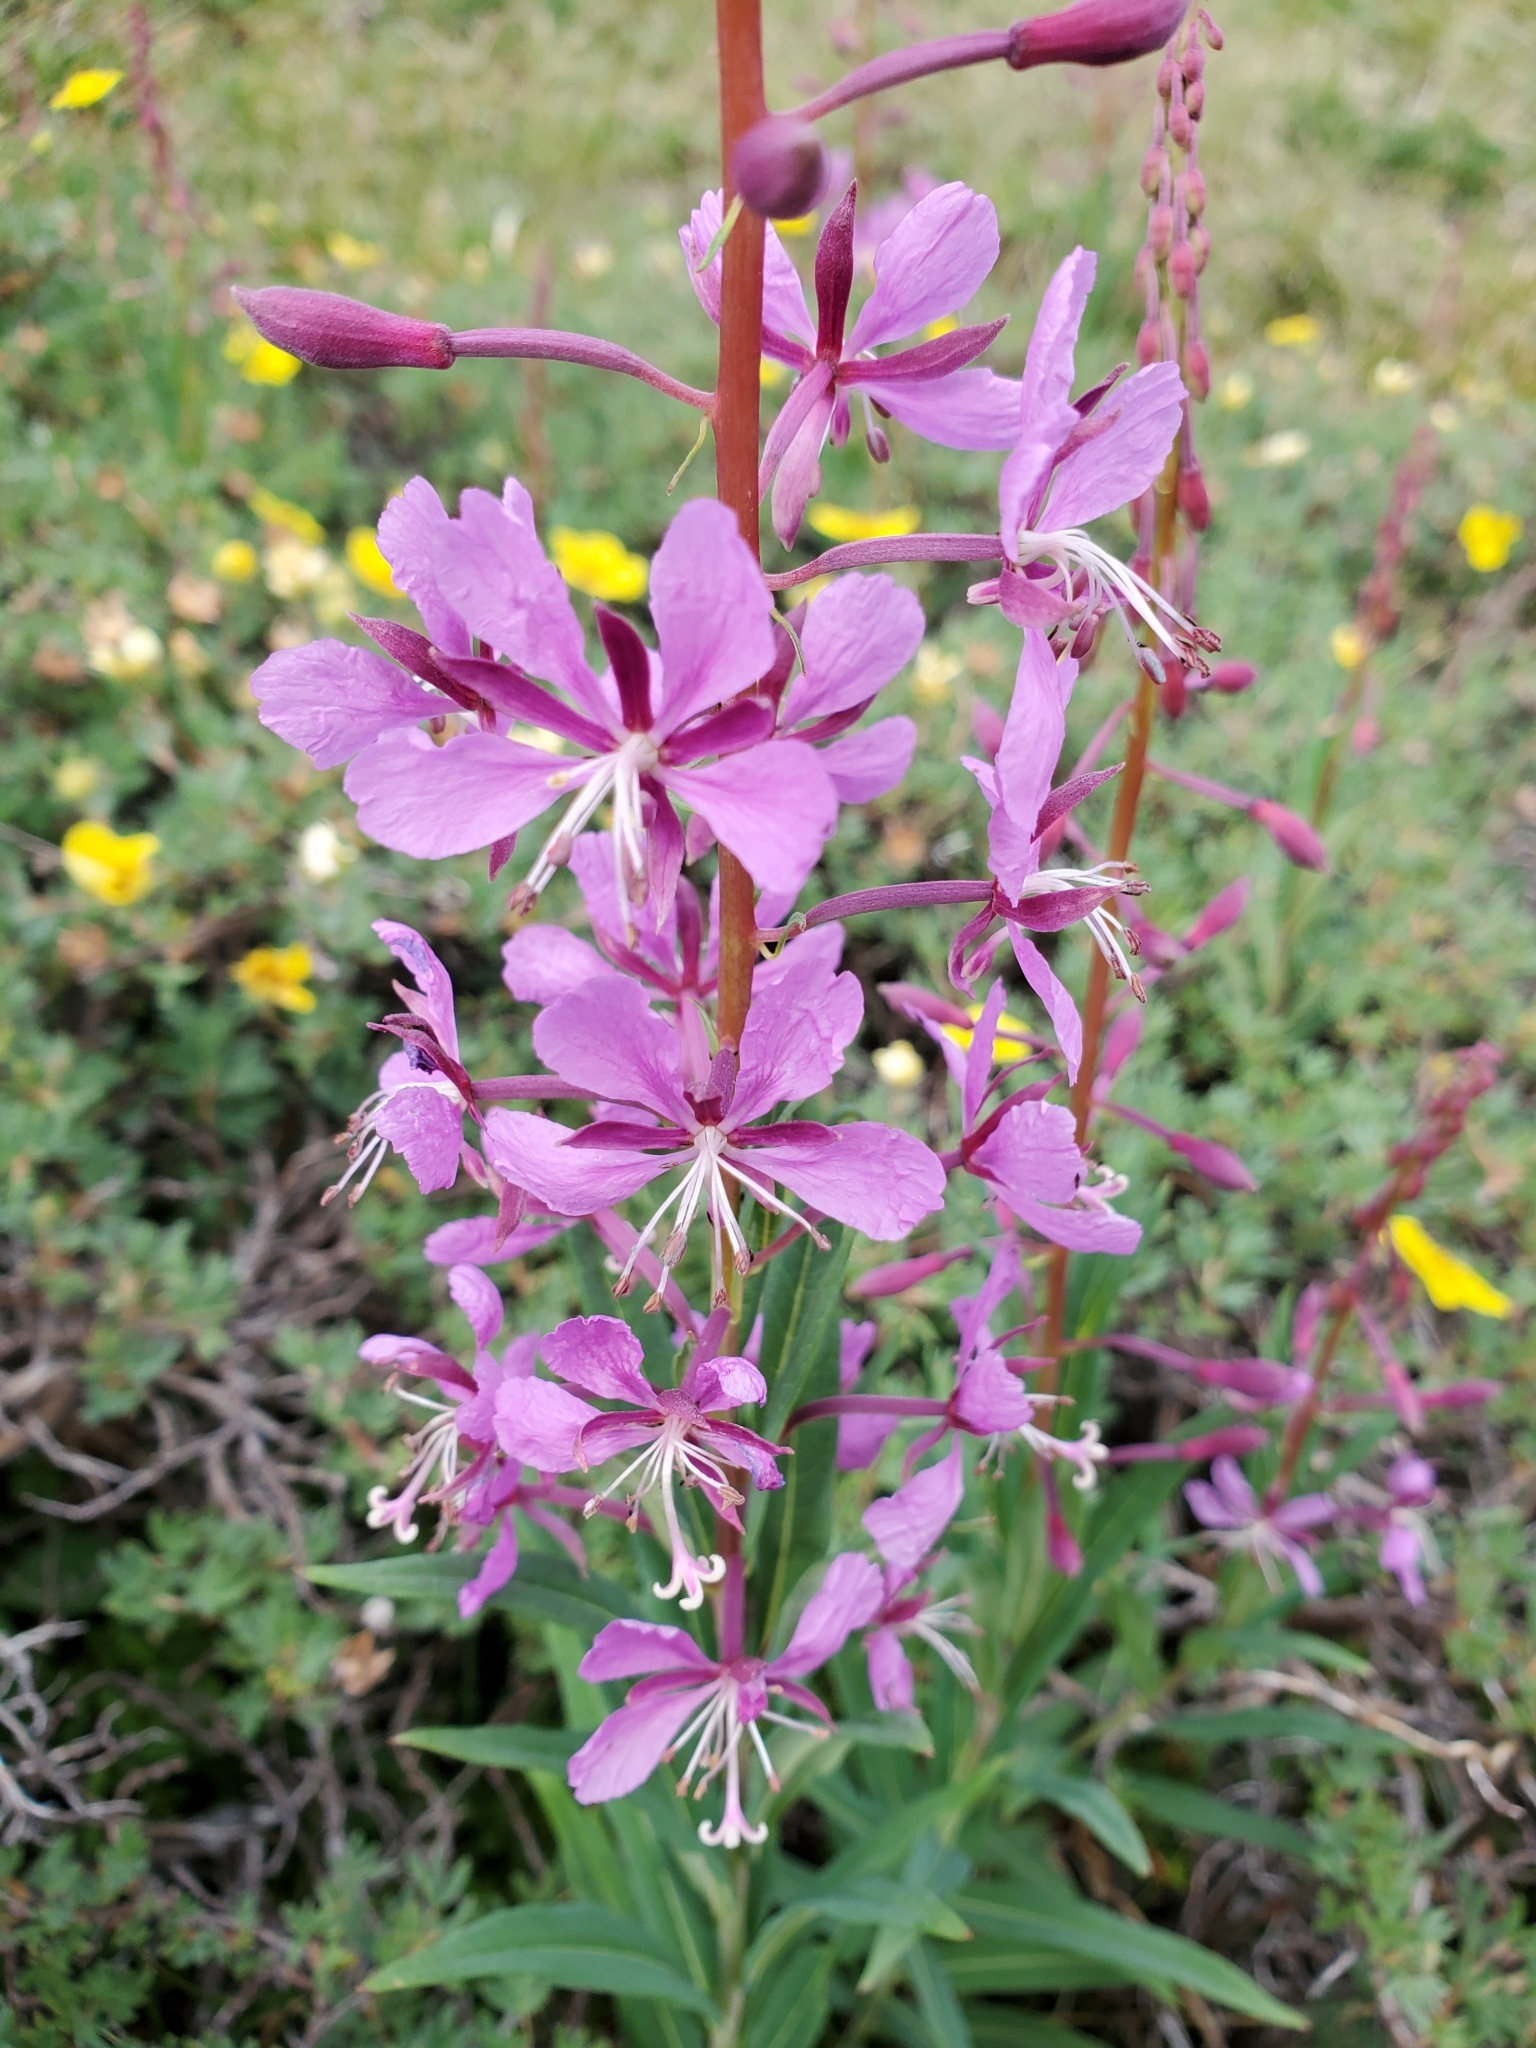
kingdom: Plantae
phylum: Tracheophyta
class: Magnoliopsida
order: Myrtales
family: Onagraceae
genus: Chamaenerion
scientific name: Chamaenerion angustifolium
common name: Fireweed
